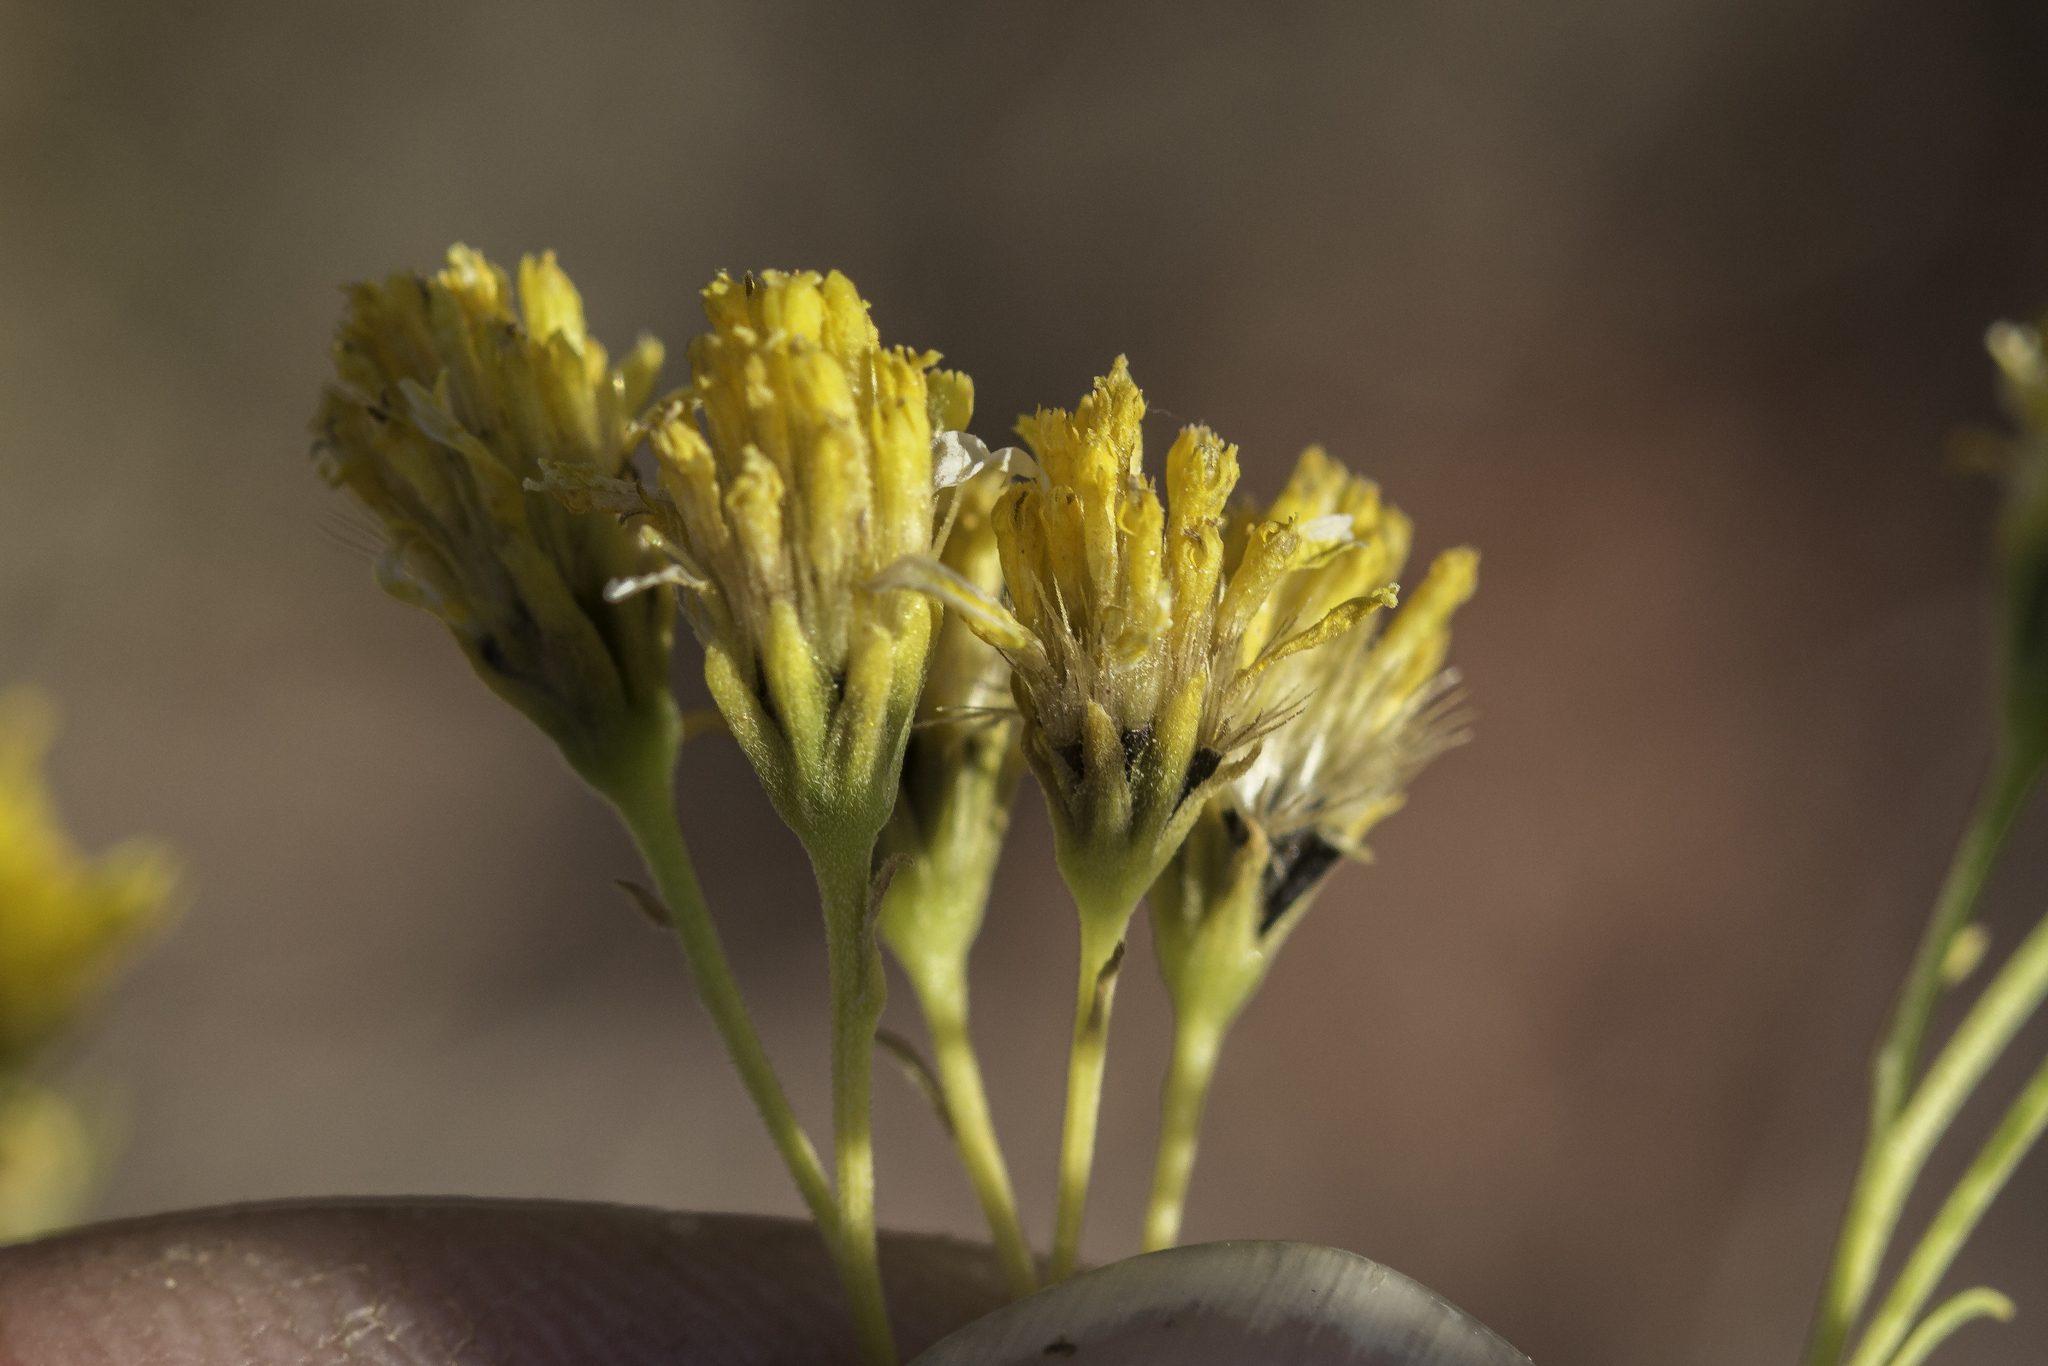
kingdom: Plantae
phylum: Tracheophyta
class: Magnoliopsida
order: Asterales
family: Asteraceae
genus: Hymenothrix
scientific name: Hymenothrix wislizeni
